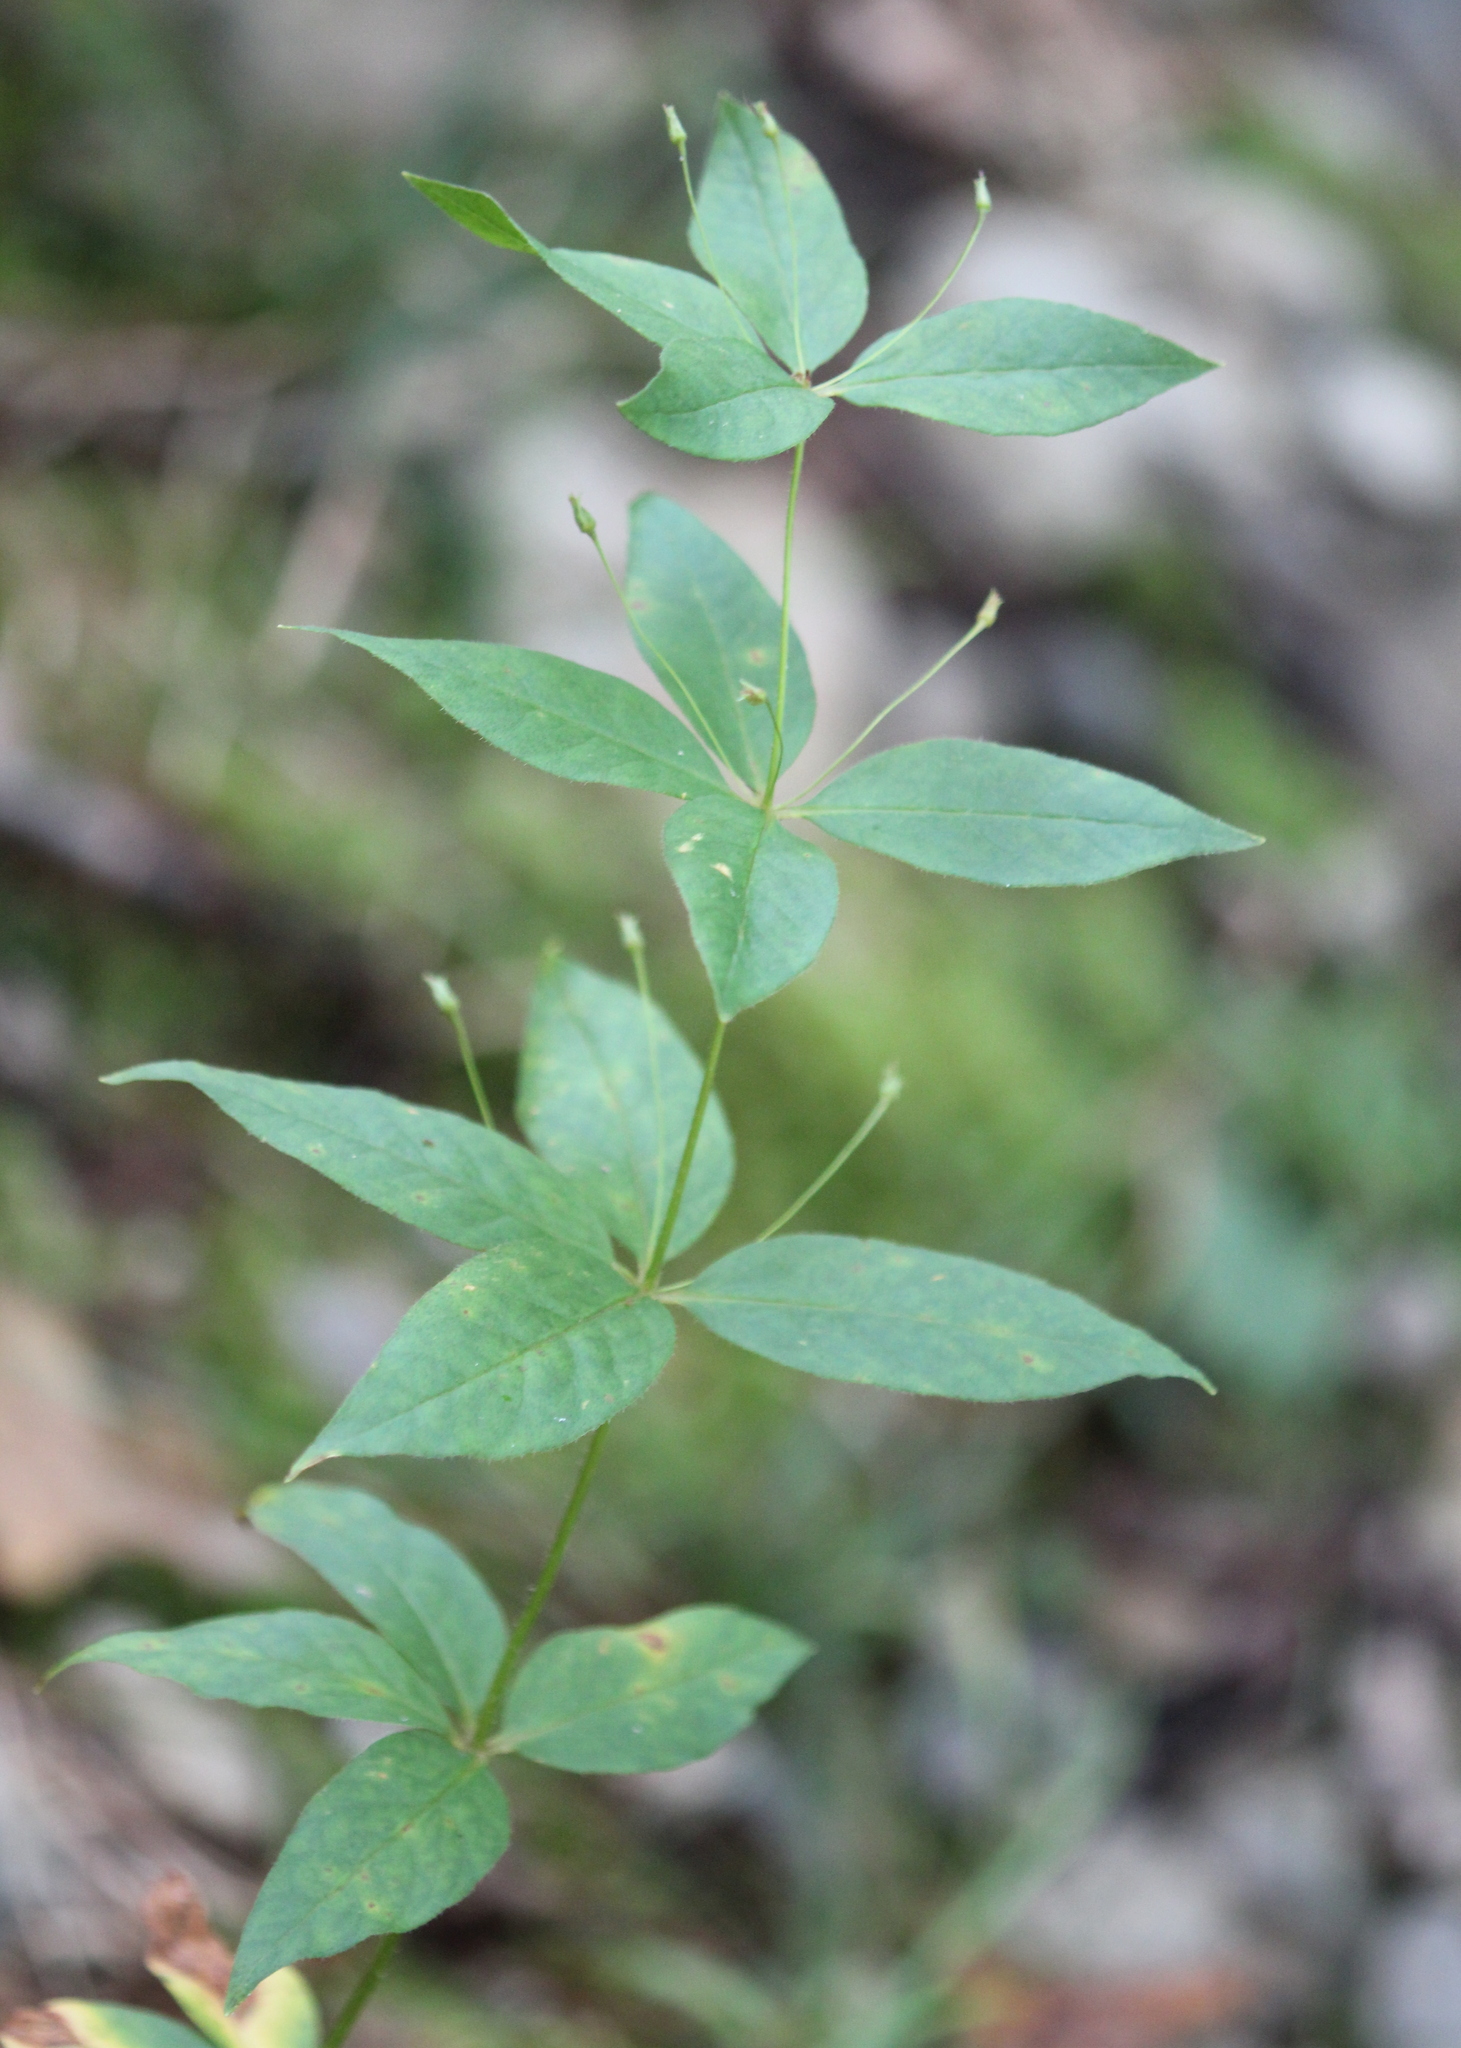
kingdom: Plantae
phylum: Tracheophyta
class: Magnoliopsida
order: Ericales
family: Primulaceae
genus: Lysimachia
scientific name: Lysimachia quadrifolia
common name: Whorled loosestrife
